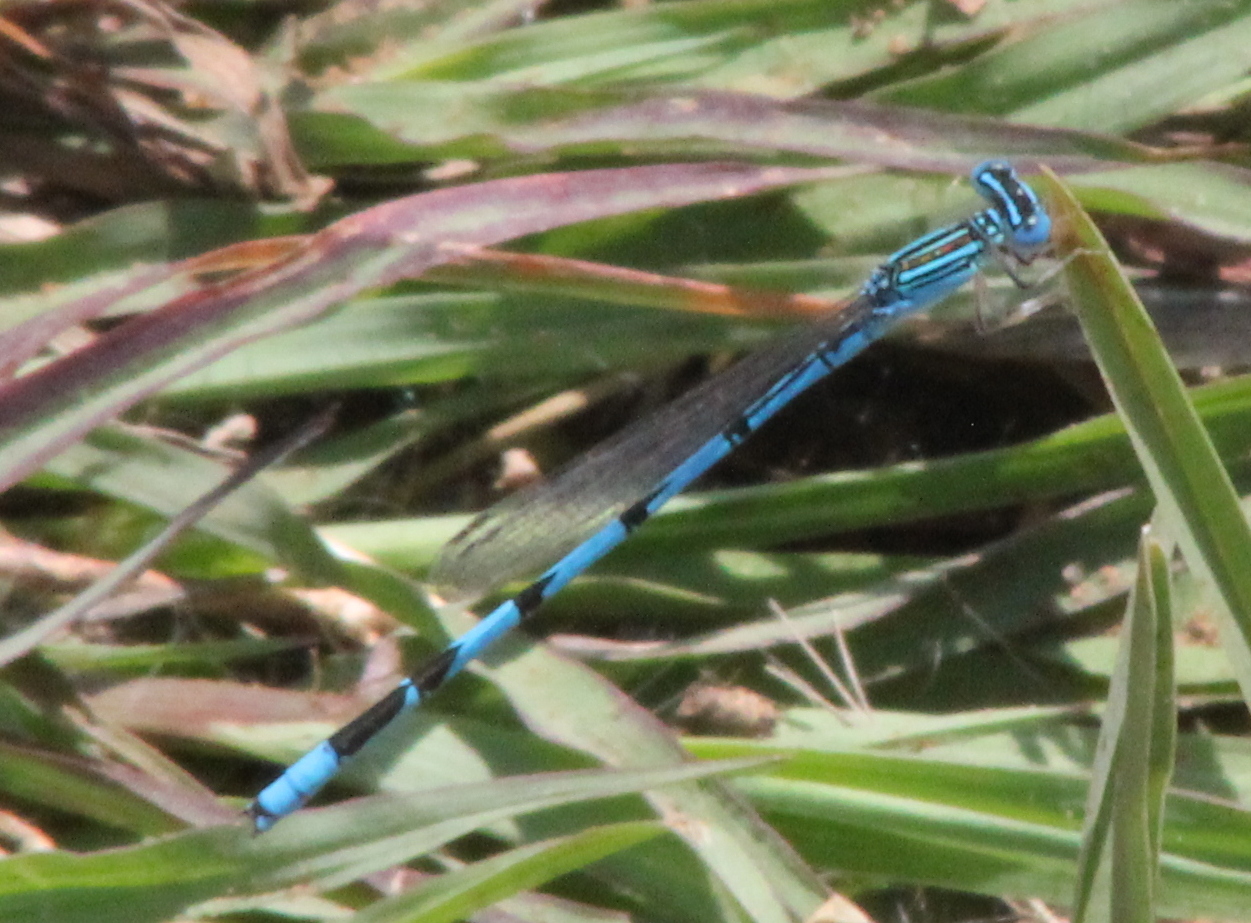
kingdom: Animalia
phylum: Arthropoda
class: Insecta
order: Odonata
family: Coenagrionidae
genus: Enallagma
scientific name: Enallagma basidens
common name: Double-striped bluet
